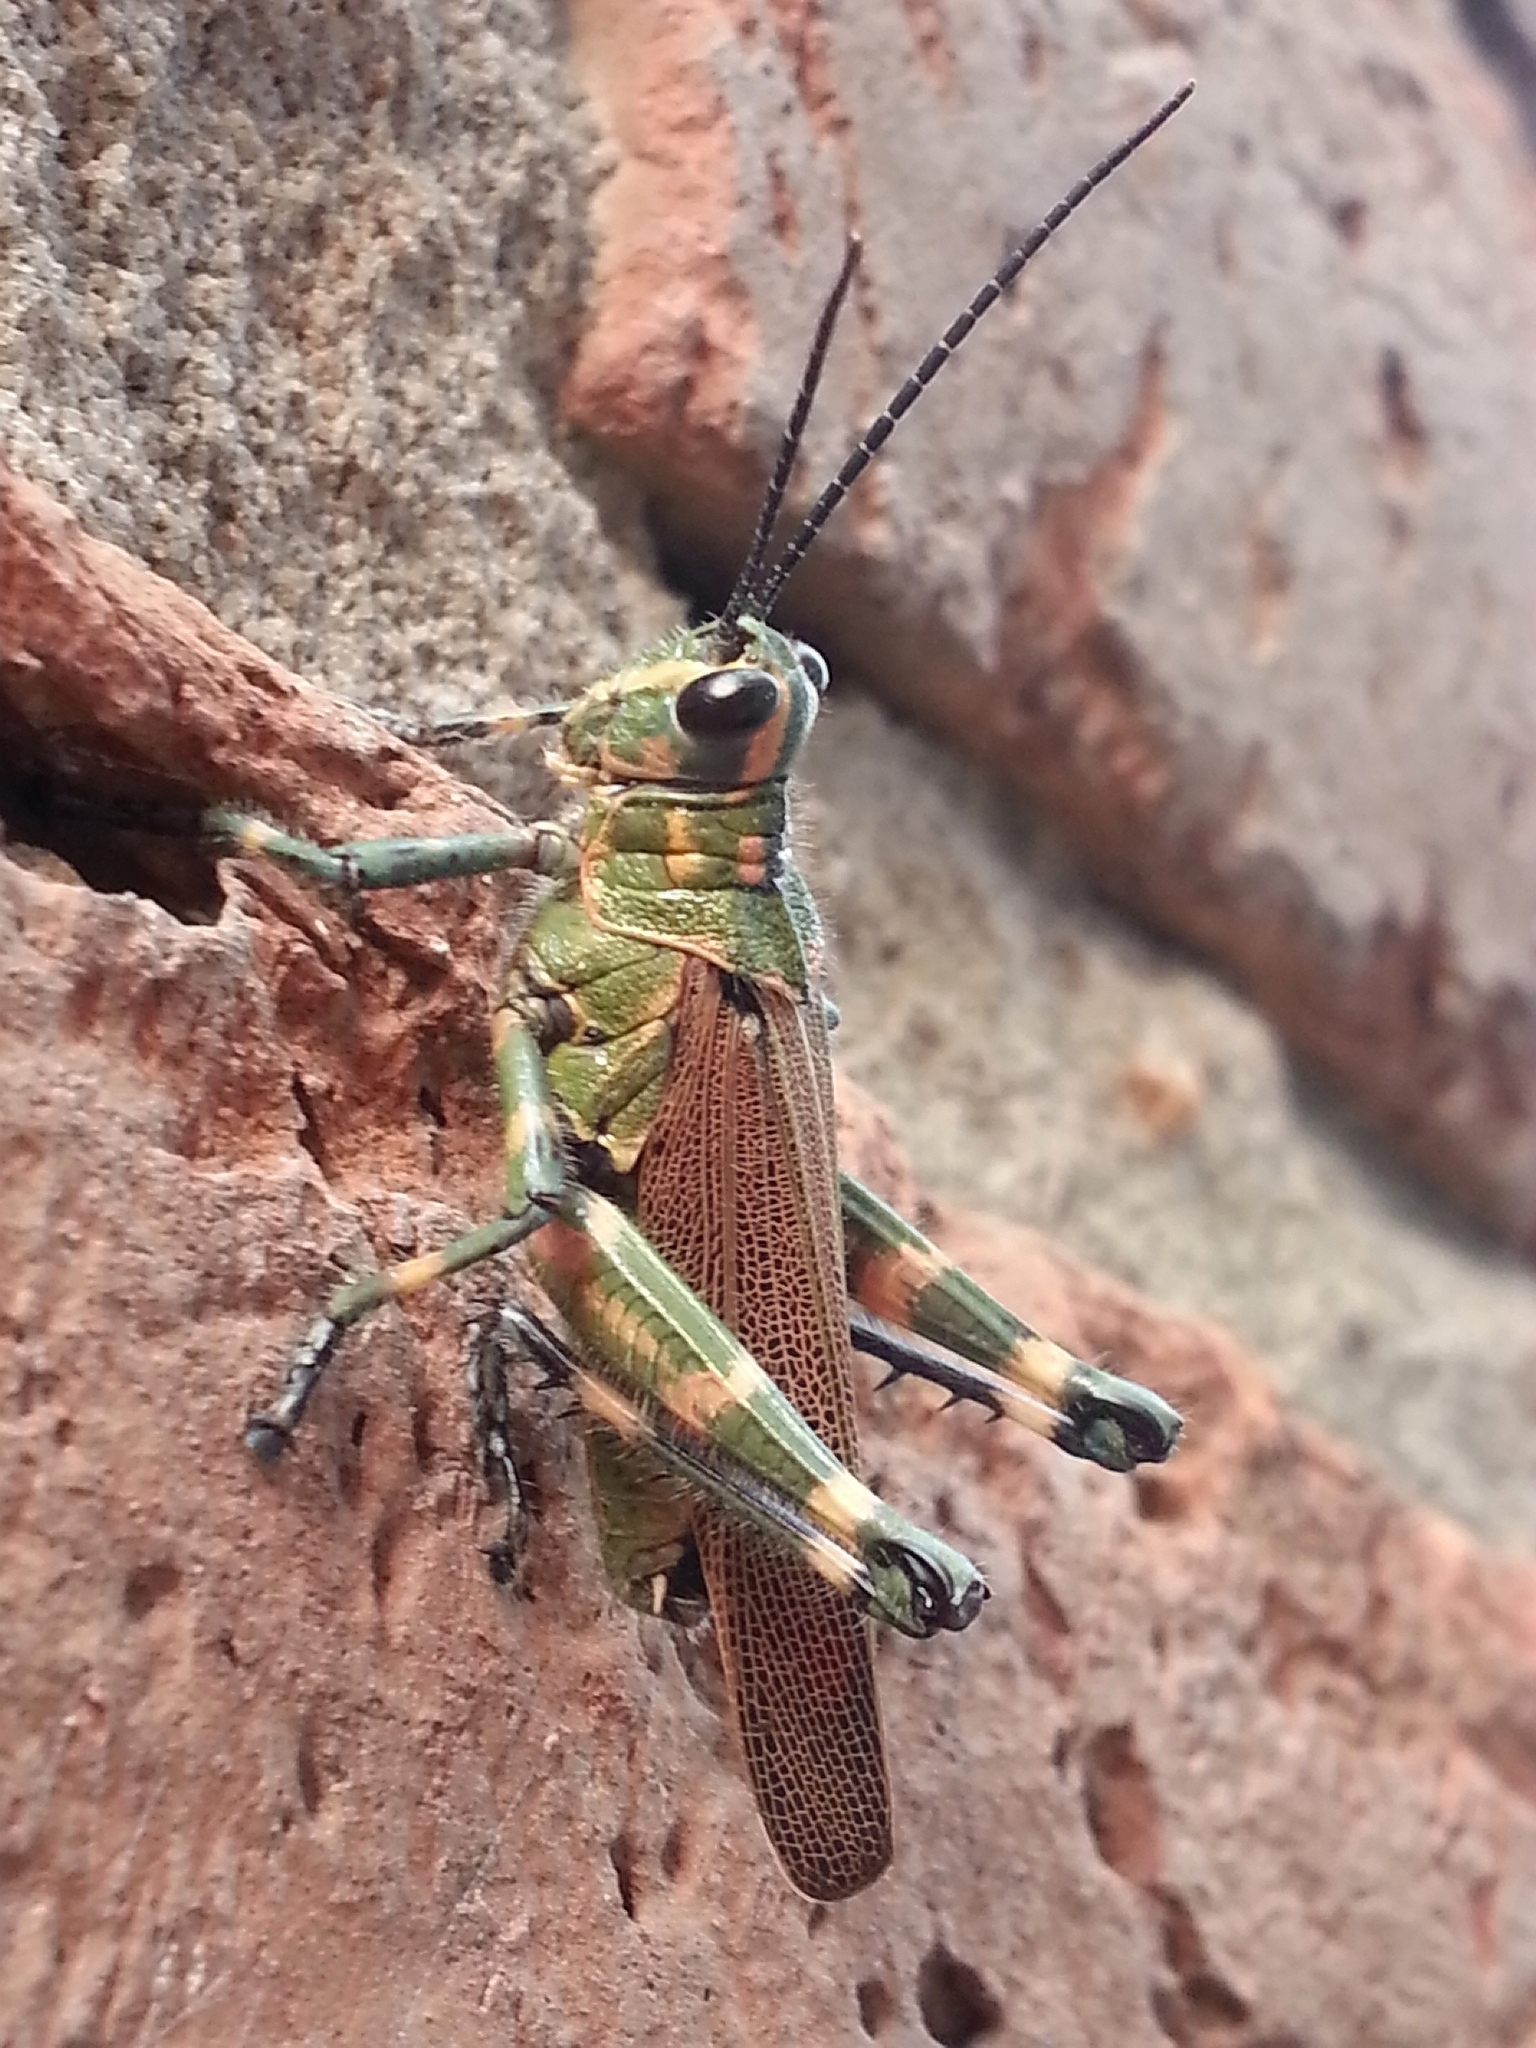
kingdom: Animalia
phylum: Arthropoda
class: Insecta
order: Orthoptera
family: Romaleidae
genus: Chromacris
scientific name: Chromacris speciosa
